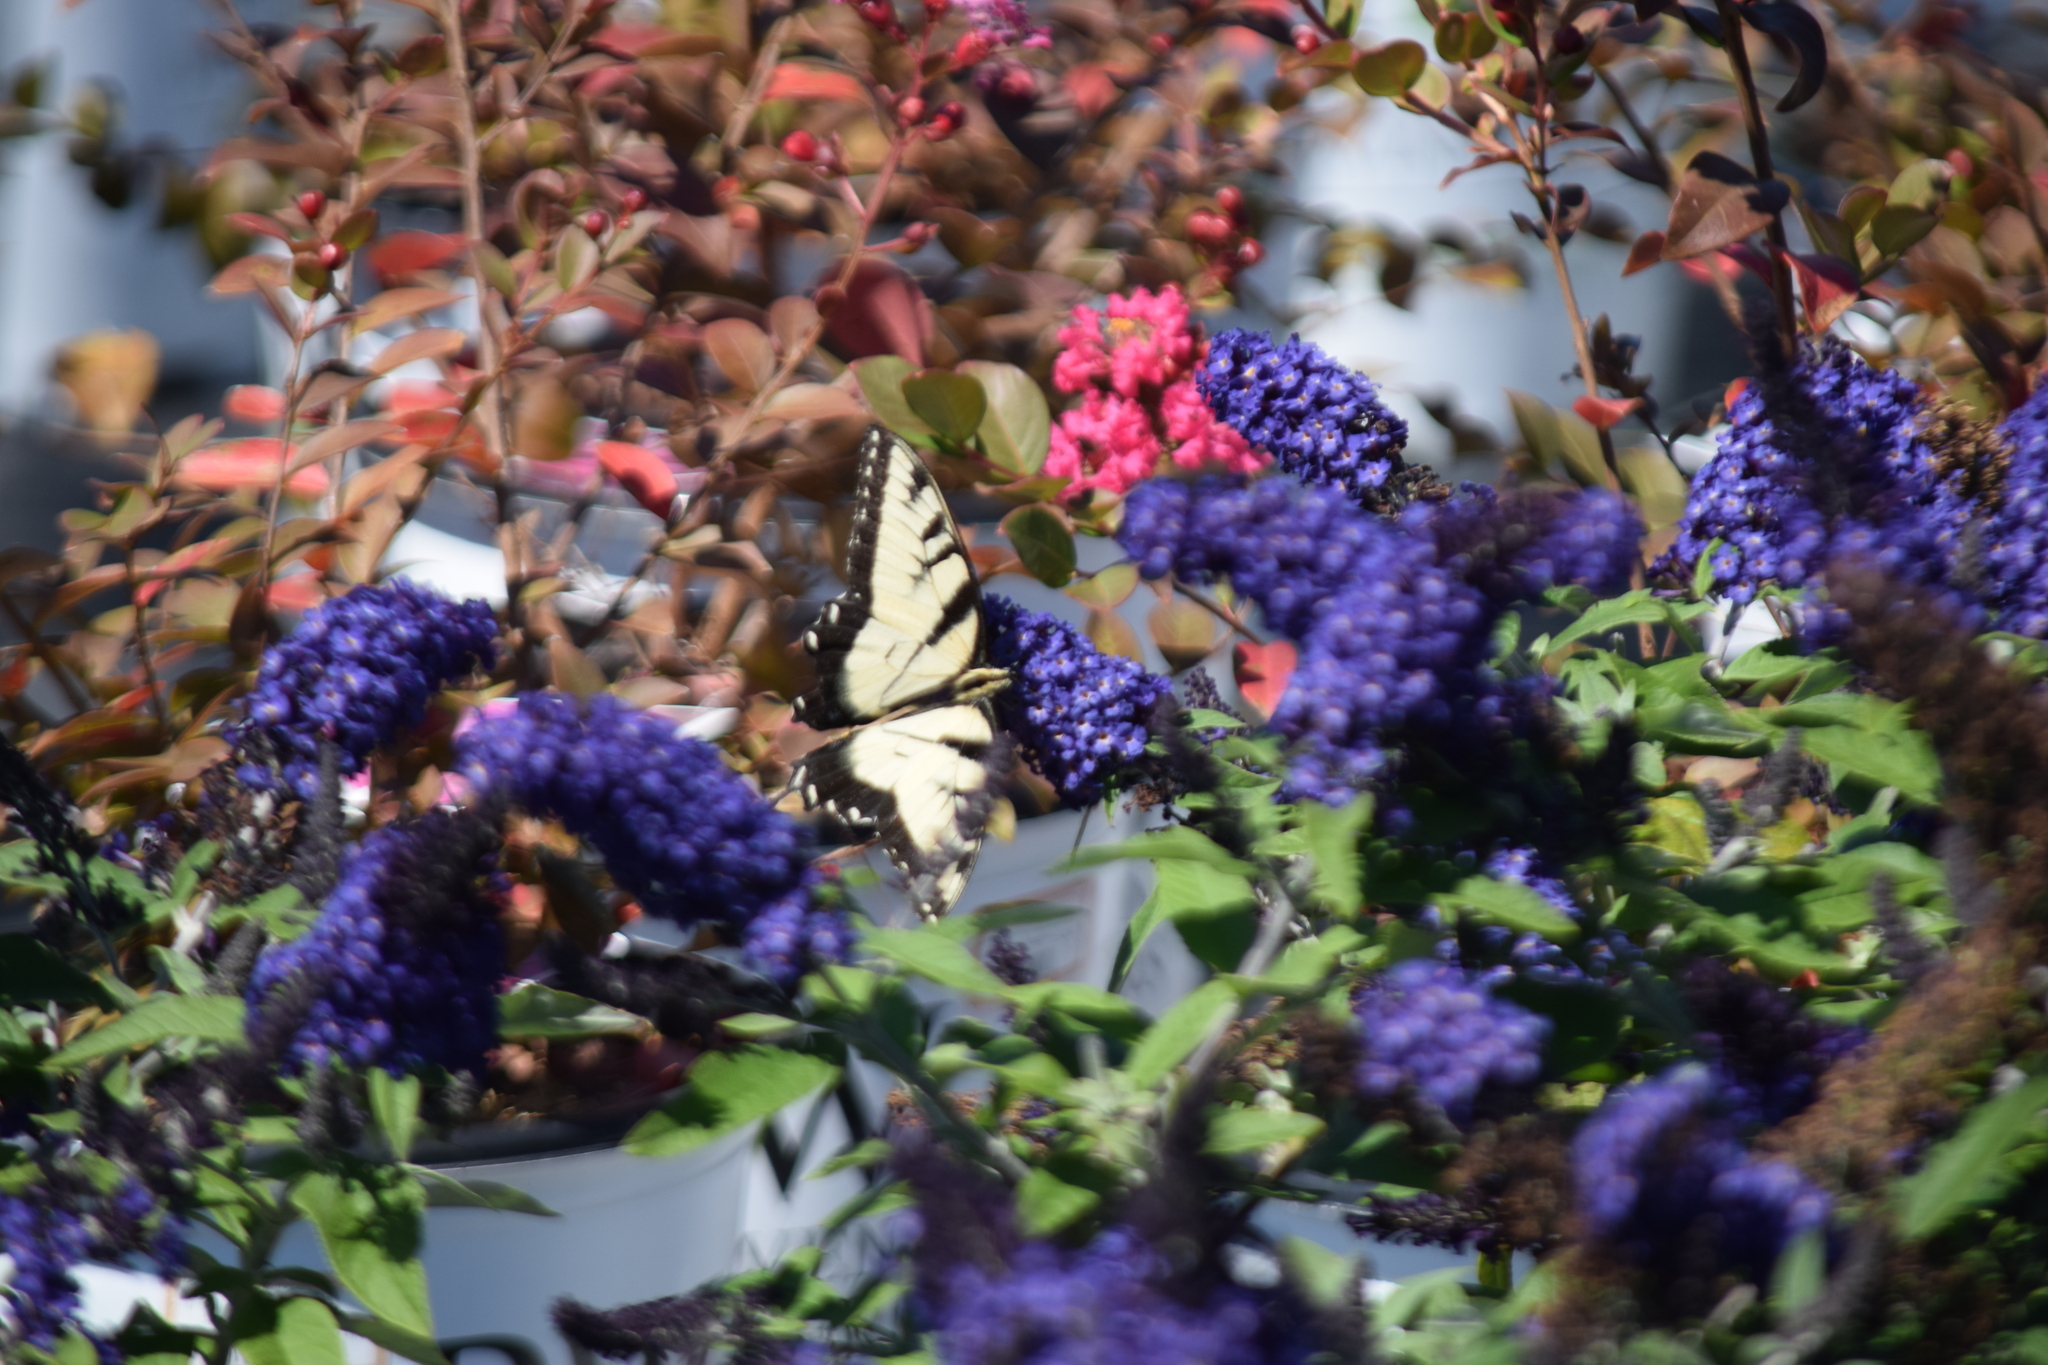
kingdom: Animalia
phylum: Arthropoda
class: Insecta
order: Lepidoptera
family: Papilionidae
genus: Papilio
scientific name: Papilio glaucus
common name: Tiger swallowtail
